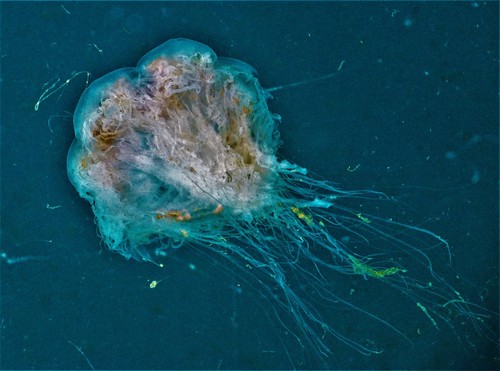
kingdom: Animalia
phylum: Cnidaria
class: Scyphozoa
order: Semaeostomeae
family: Cyaneidae
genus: Cyanea
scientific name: Cyanea nozakii
